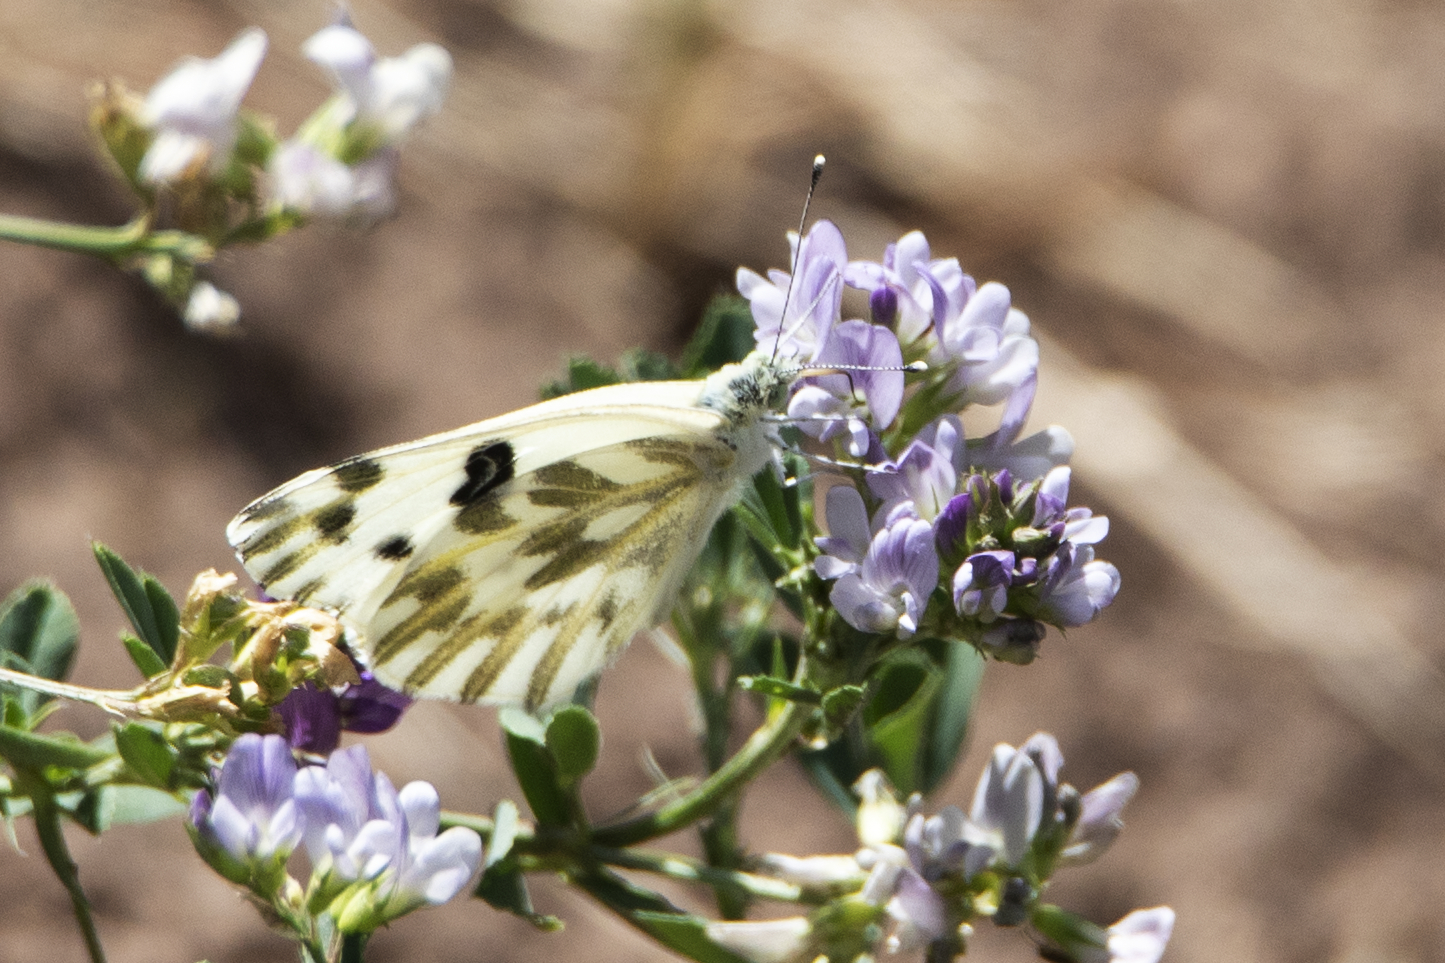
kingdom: Animalia
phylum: Arthropoda
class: Insecta
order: Lepidoptera
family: Pieridae
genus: Pontia
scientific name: Pontia beckerii
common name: Becker's white
